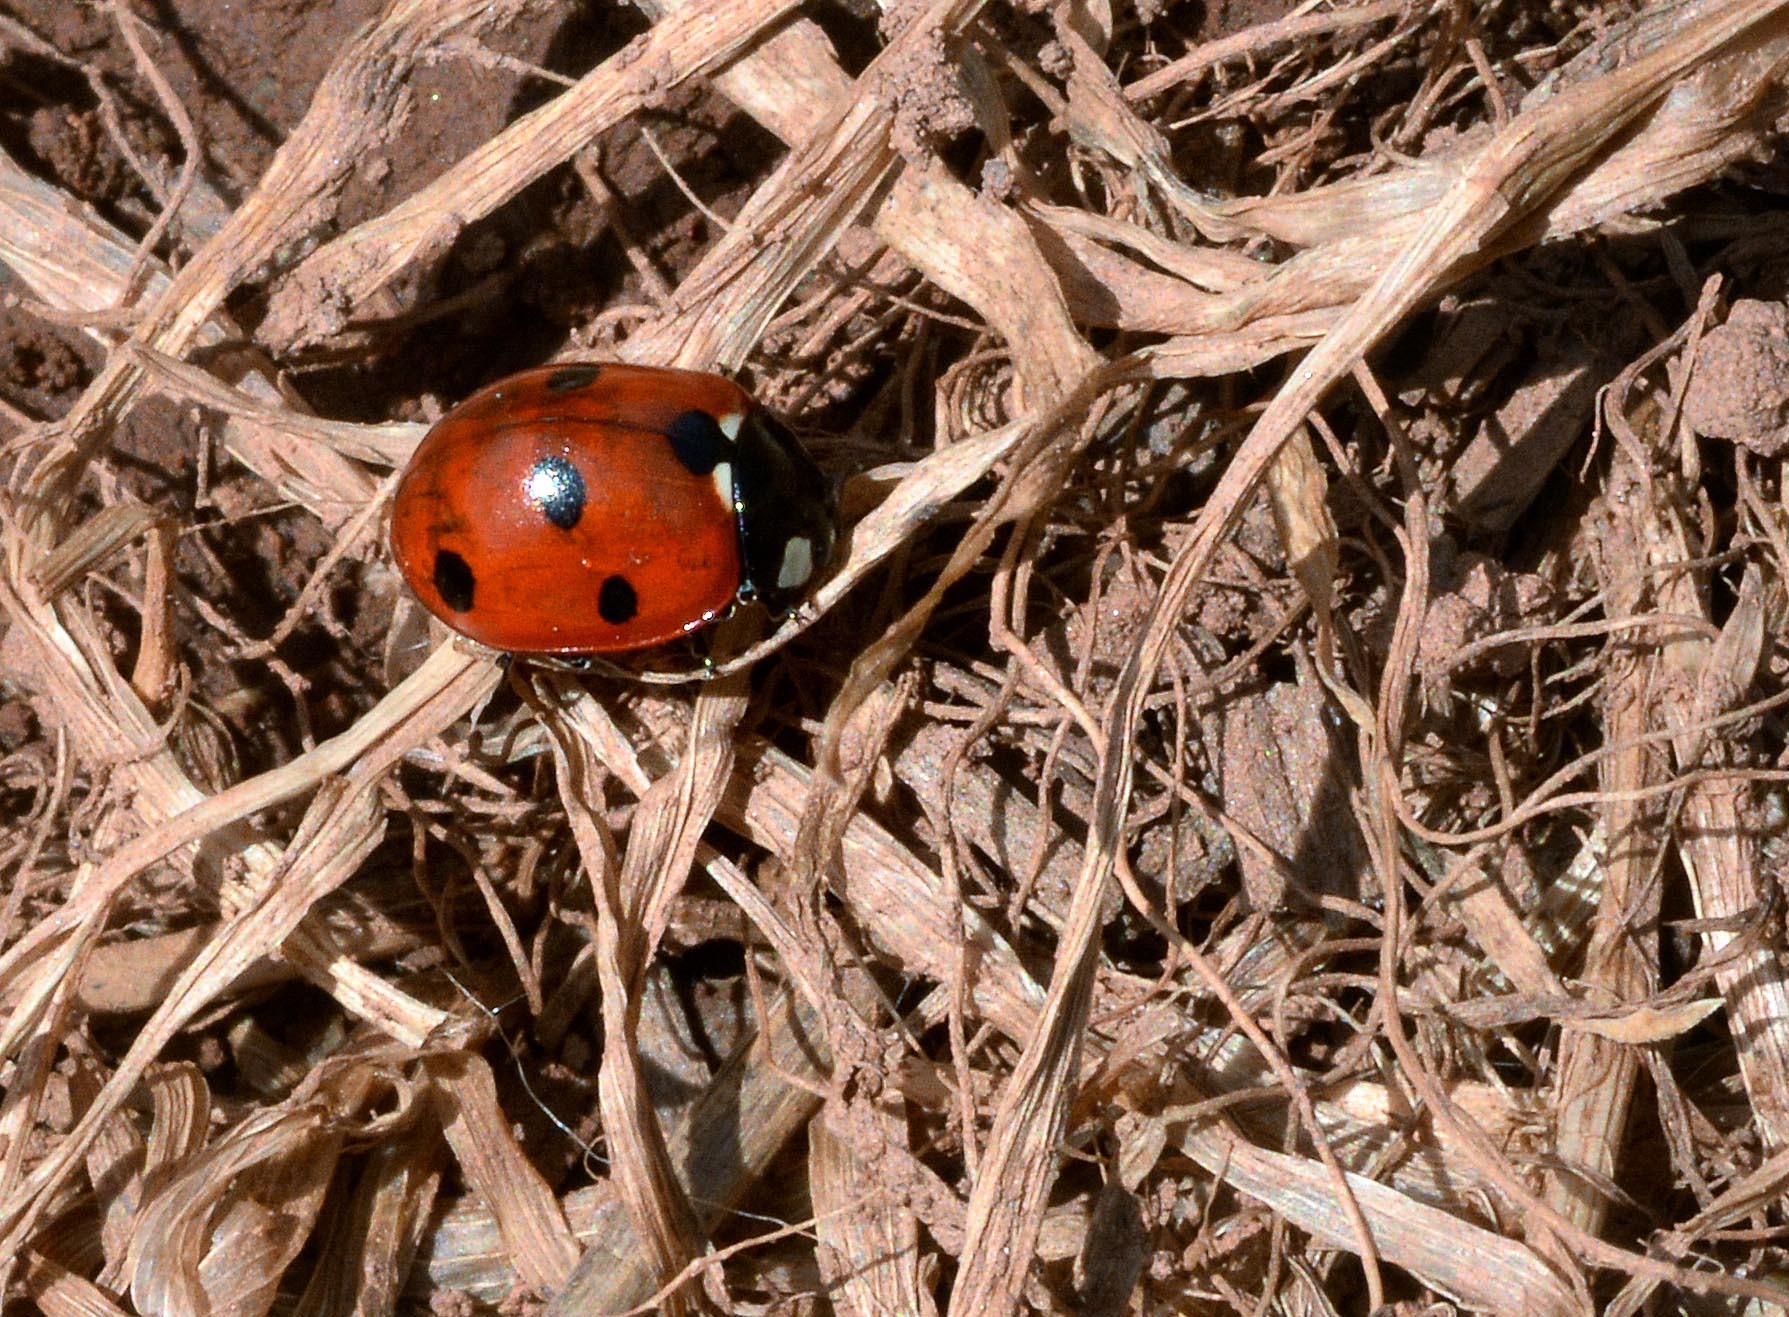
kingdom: Animalia
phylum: Arthropoda
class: Insecta
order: Coleoptera
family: Coccinellidae
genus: Coccinella
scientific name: Coccinella septempunctata
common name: Sevenspotted lady beetle
